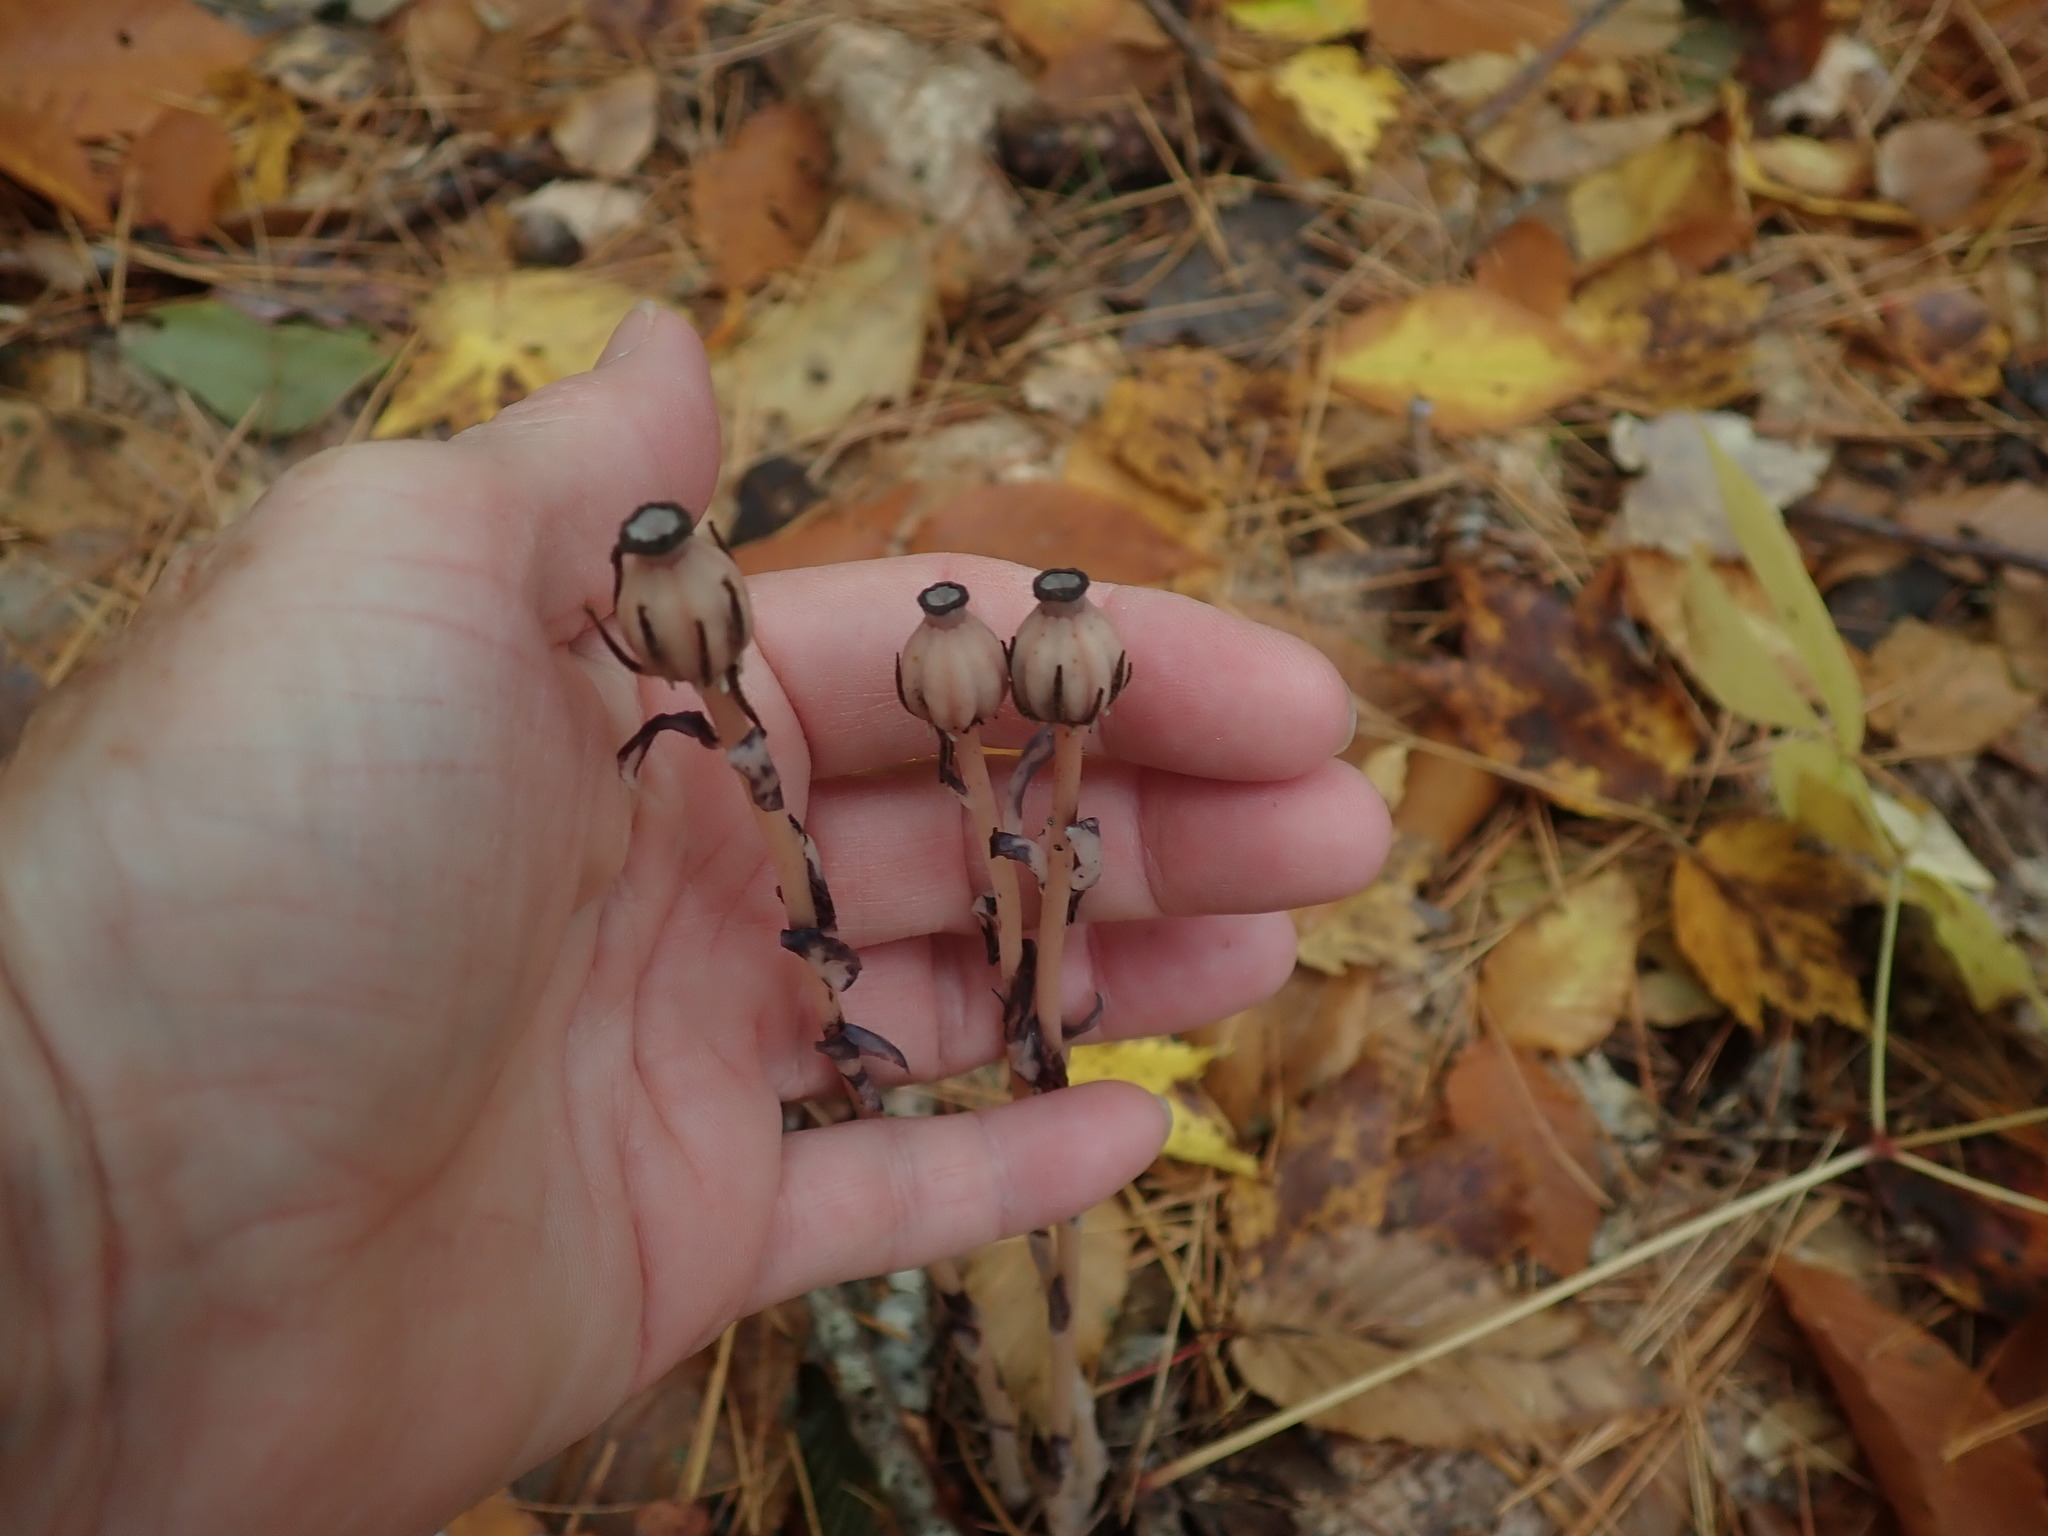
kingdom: Plantae
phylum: Tracheophyta
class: Magnoliopsida
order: Ericales
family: Ericaceae
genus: Monotropa
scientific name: Monotropa uniflora
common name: Convulsion root
